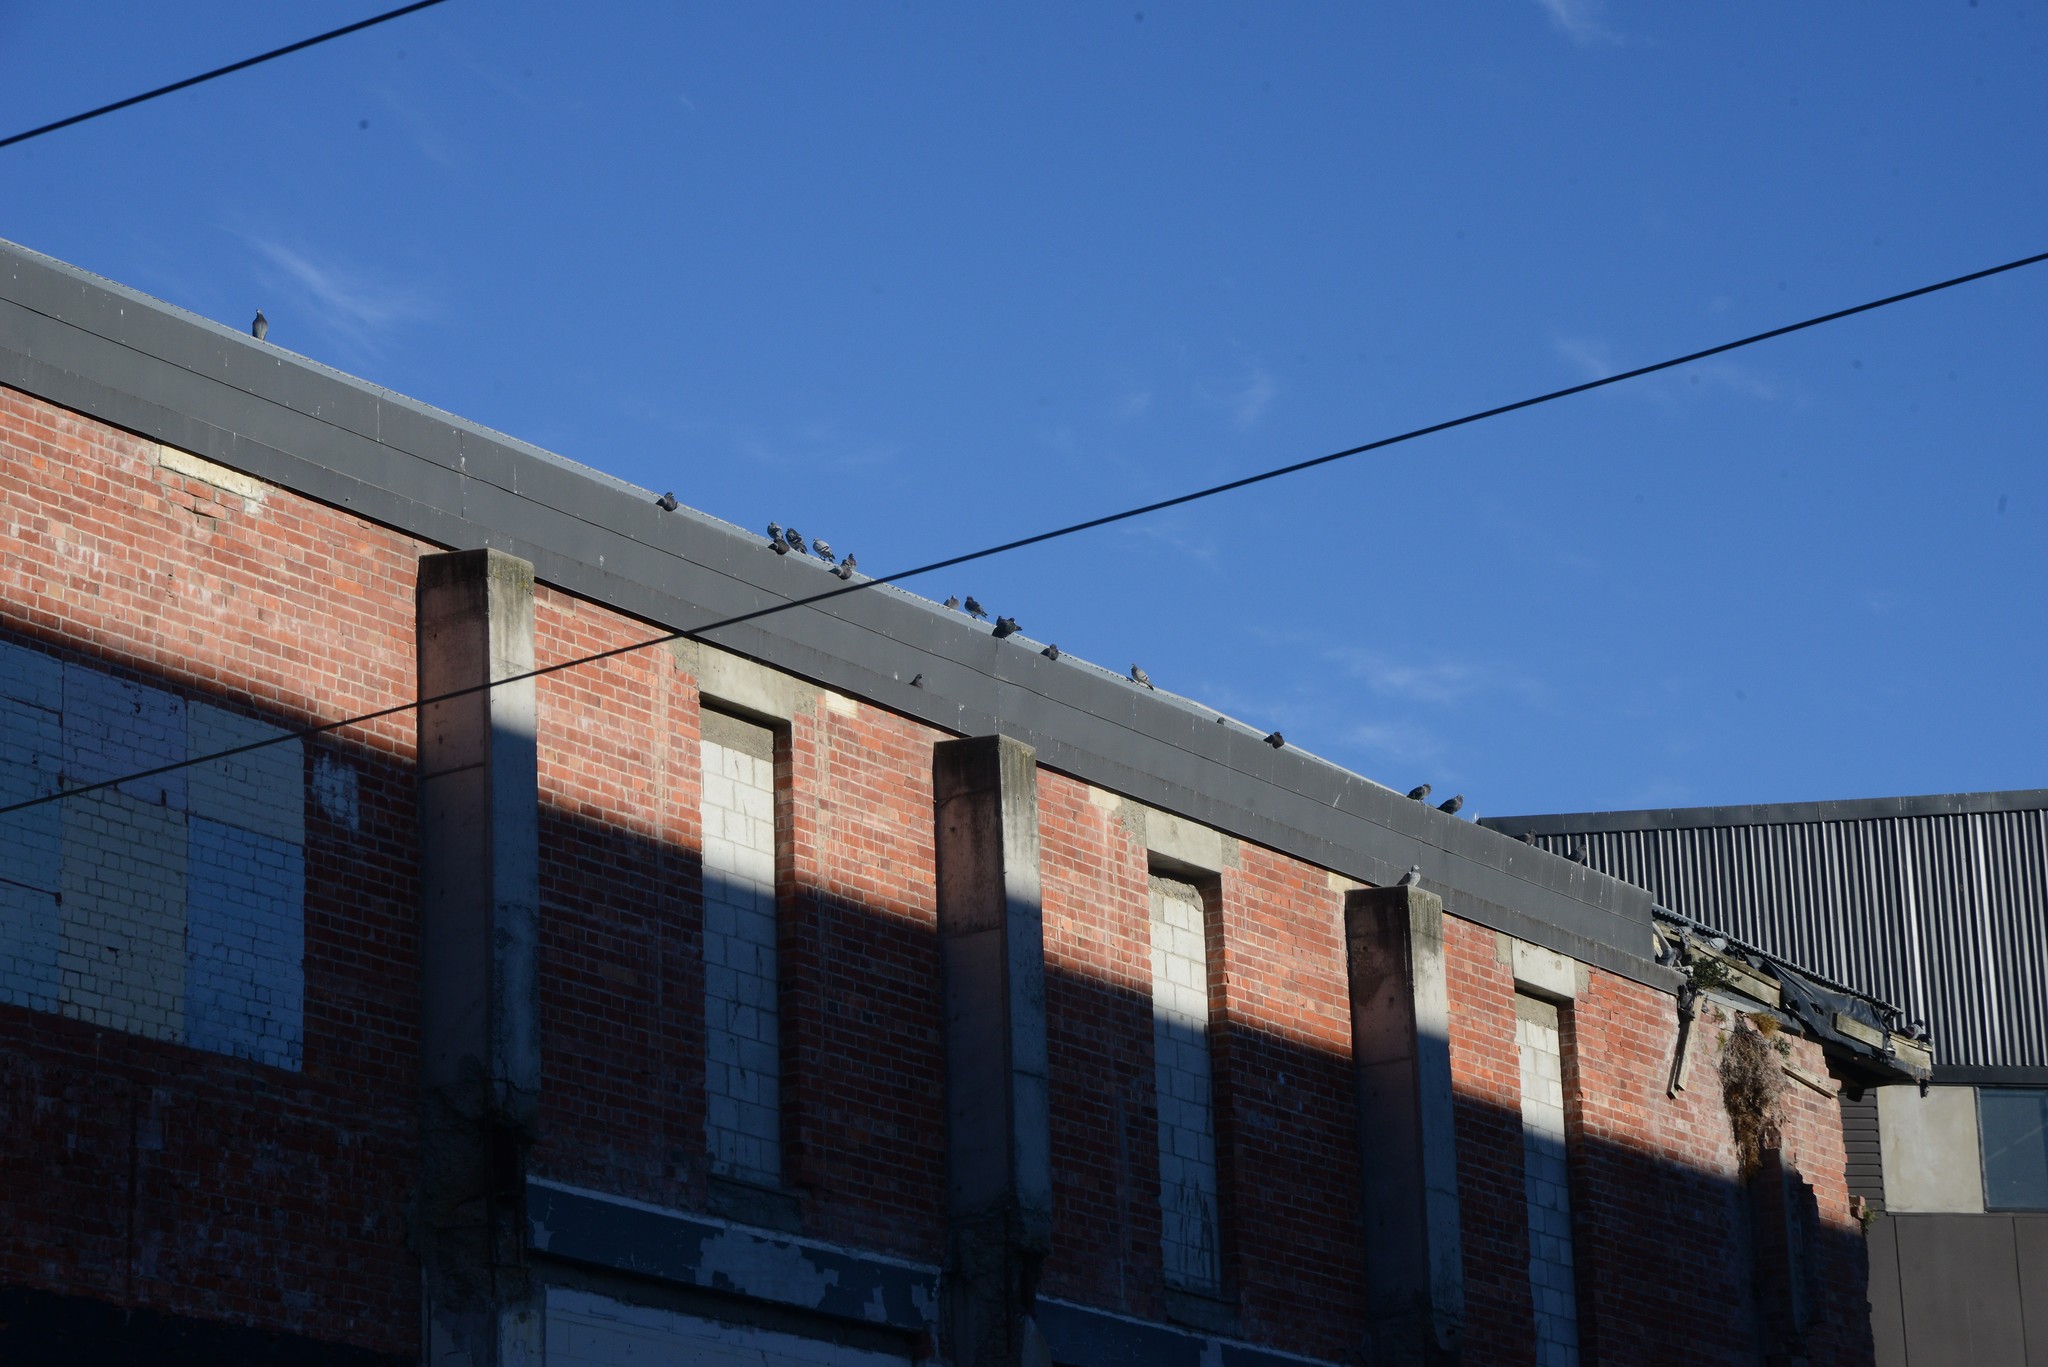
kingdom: Animalia
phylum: Chordata
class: Aves
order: Columbiformes
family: Columbidae
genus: Columba
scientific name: Columba livia
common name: Rock pigeon
